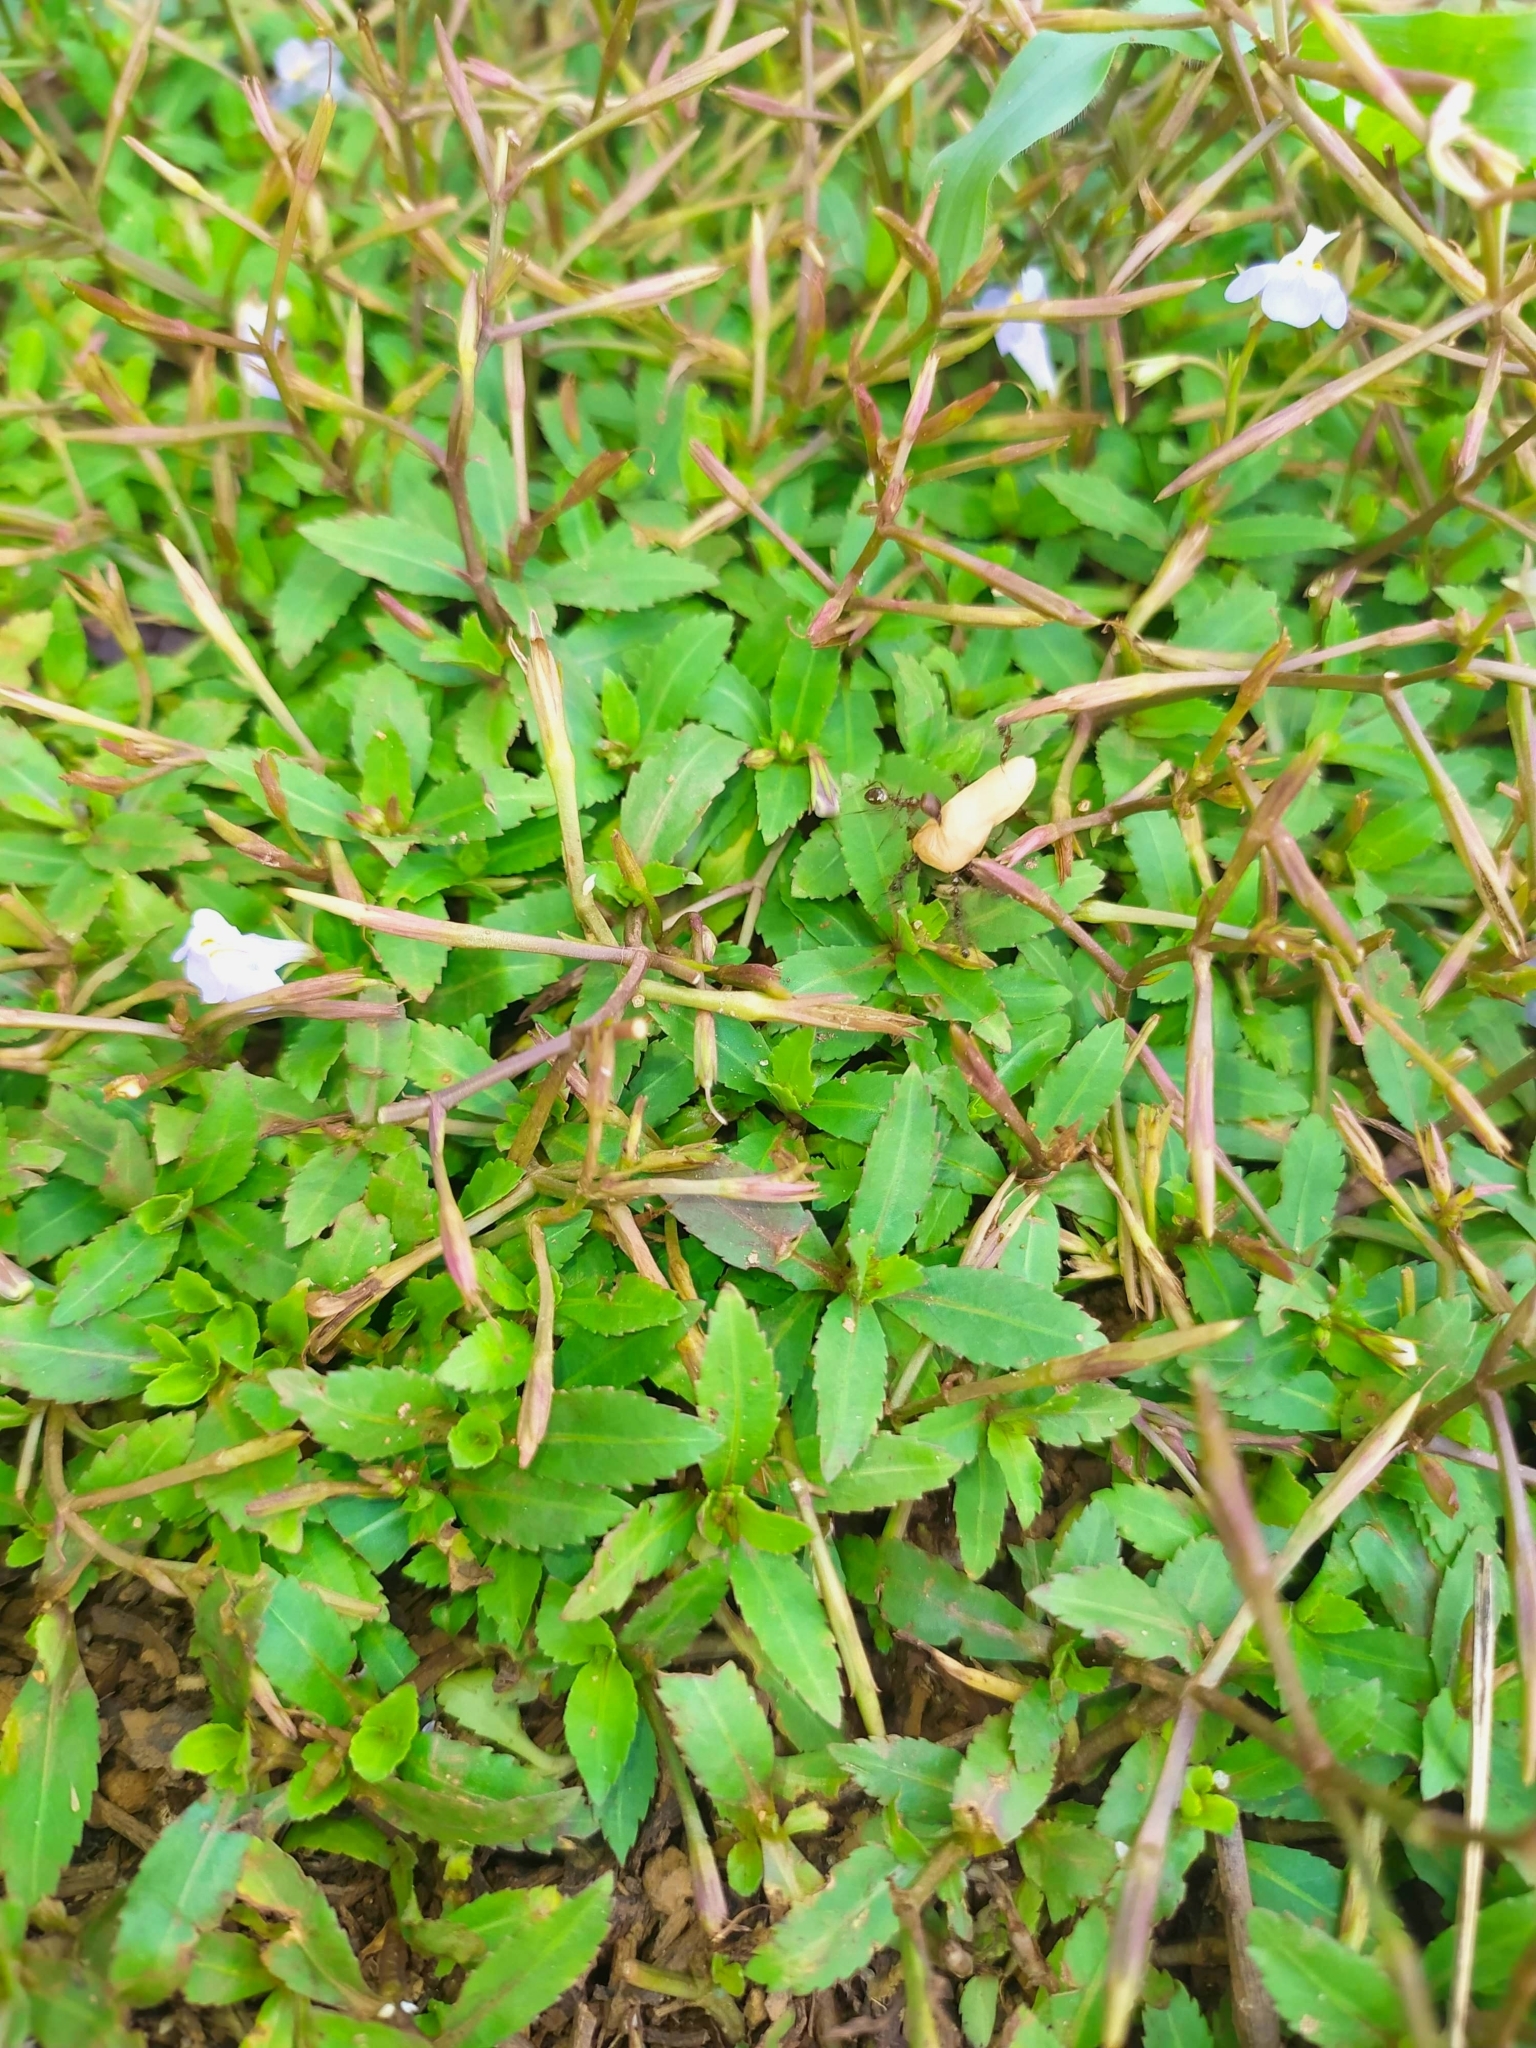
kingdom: Plantae
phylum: Tracheophyta
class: Magnoliopsida
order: Lamiales
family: Linderniaceae
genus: Bonnaya
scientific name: Bonnaya antipoda
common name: Sparrow false pimpernel
